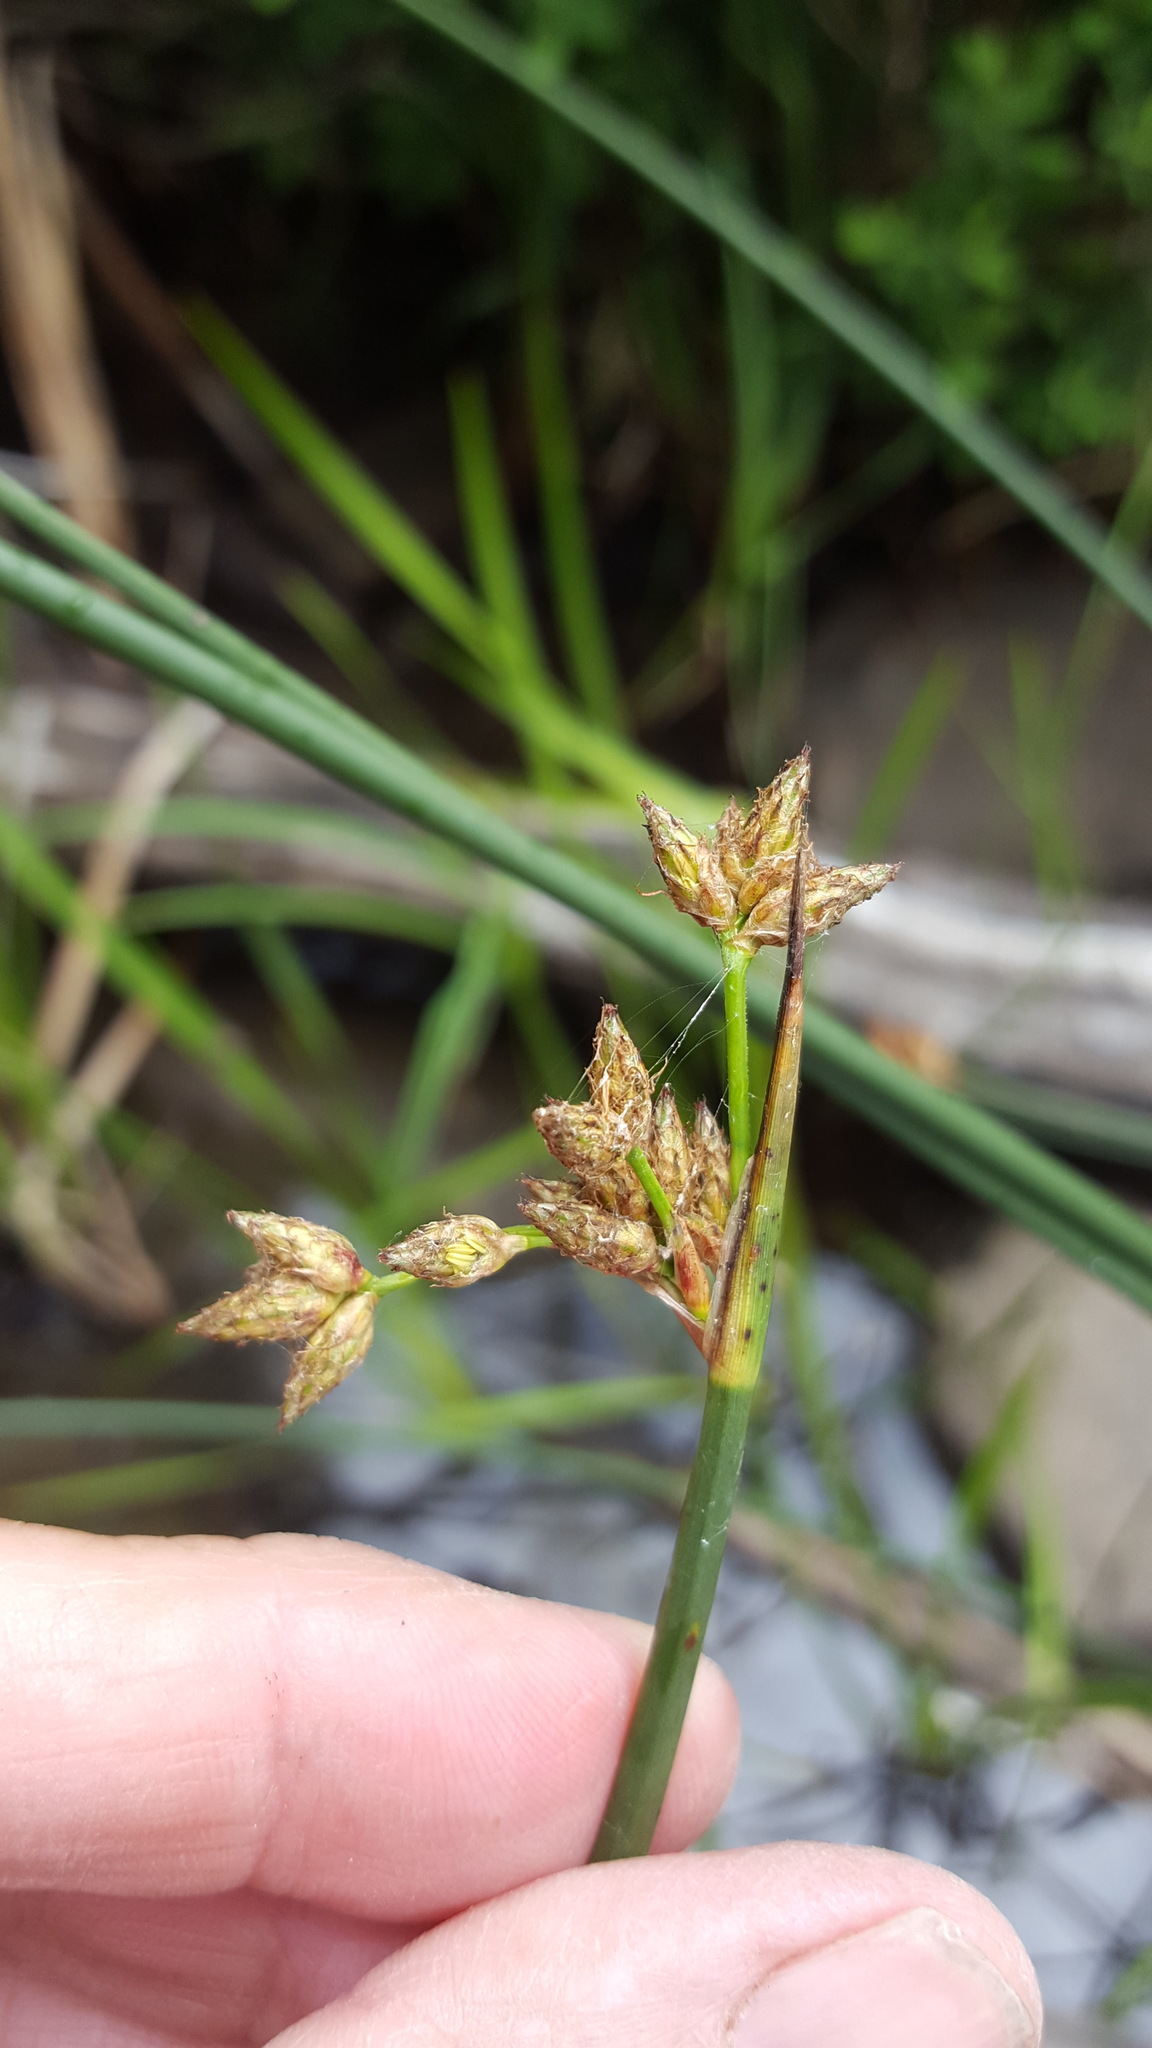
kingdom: Plantae
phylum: Tracheophyta
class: Liliopsida
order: Poales
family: Cyperaceae
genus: Schoenoplectus
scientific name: Schoenoplectus tabernaemontani
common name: Grey club-rush
